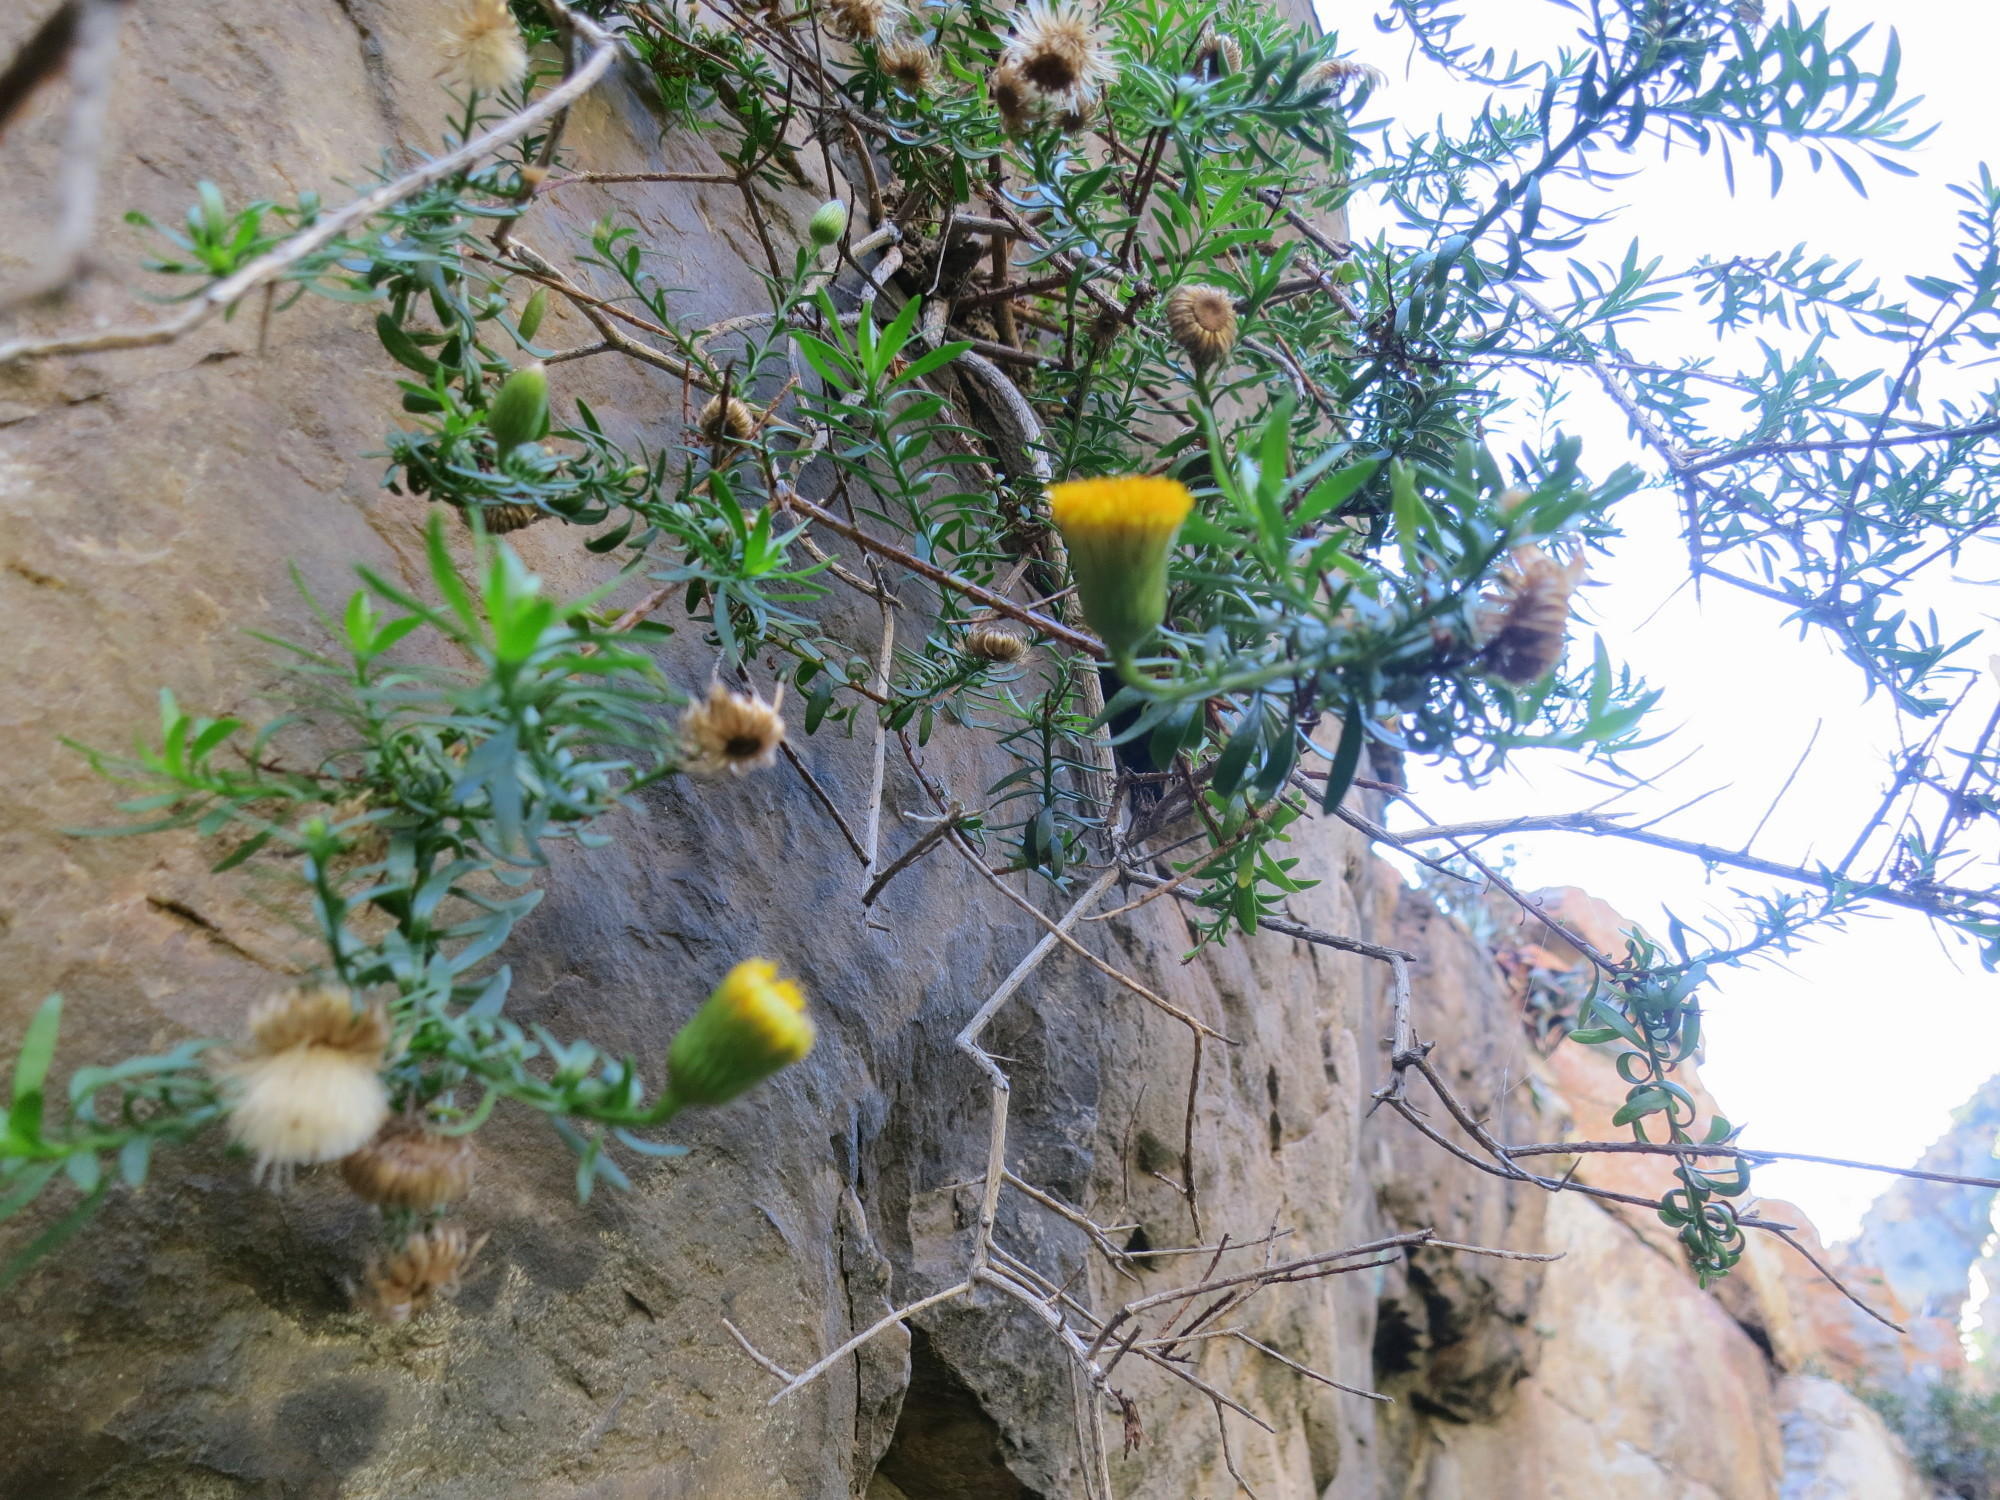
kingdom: Plantae
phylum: Tracheophyta
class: Magnoliopsida
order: Asterales
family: Asteraceae
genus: Pentatrichia
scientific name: Pentatrichia integra
